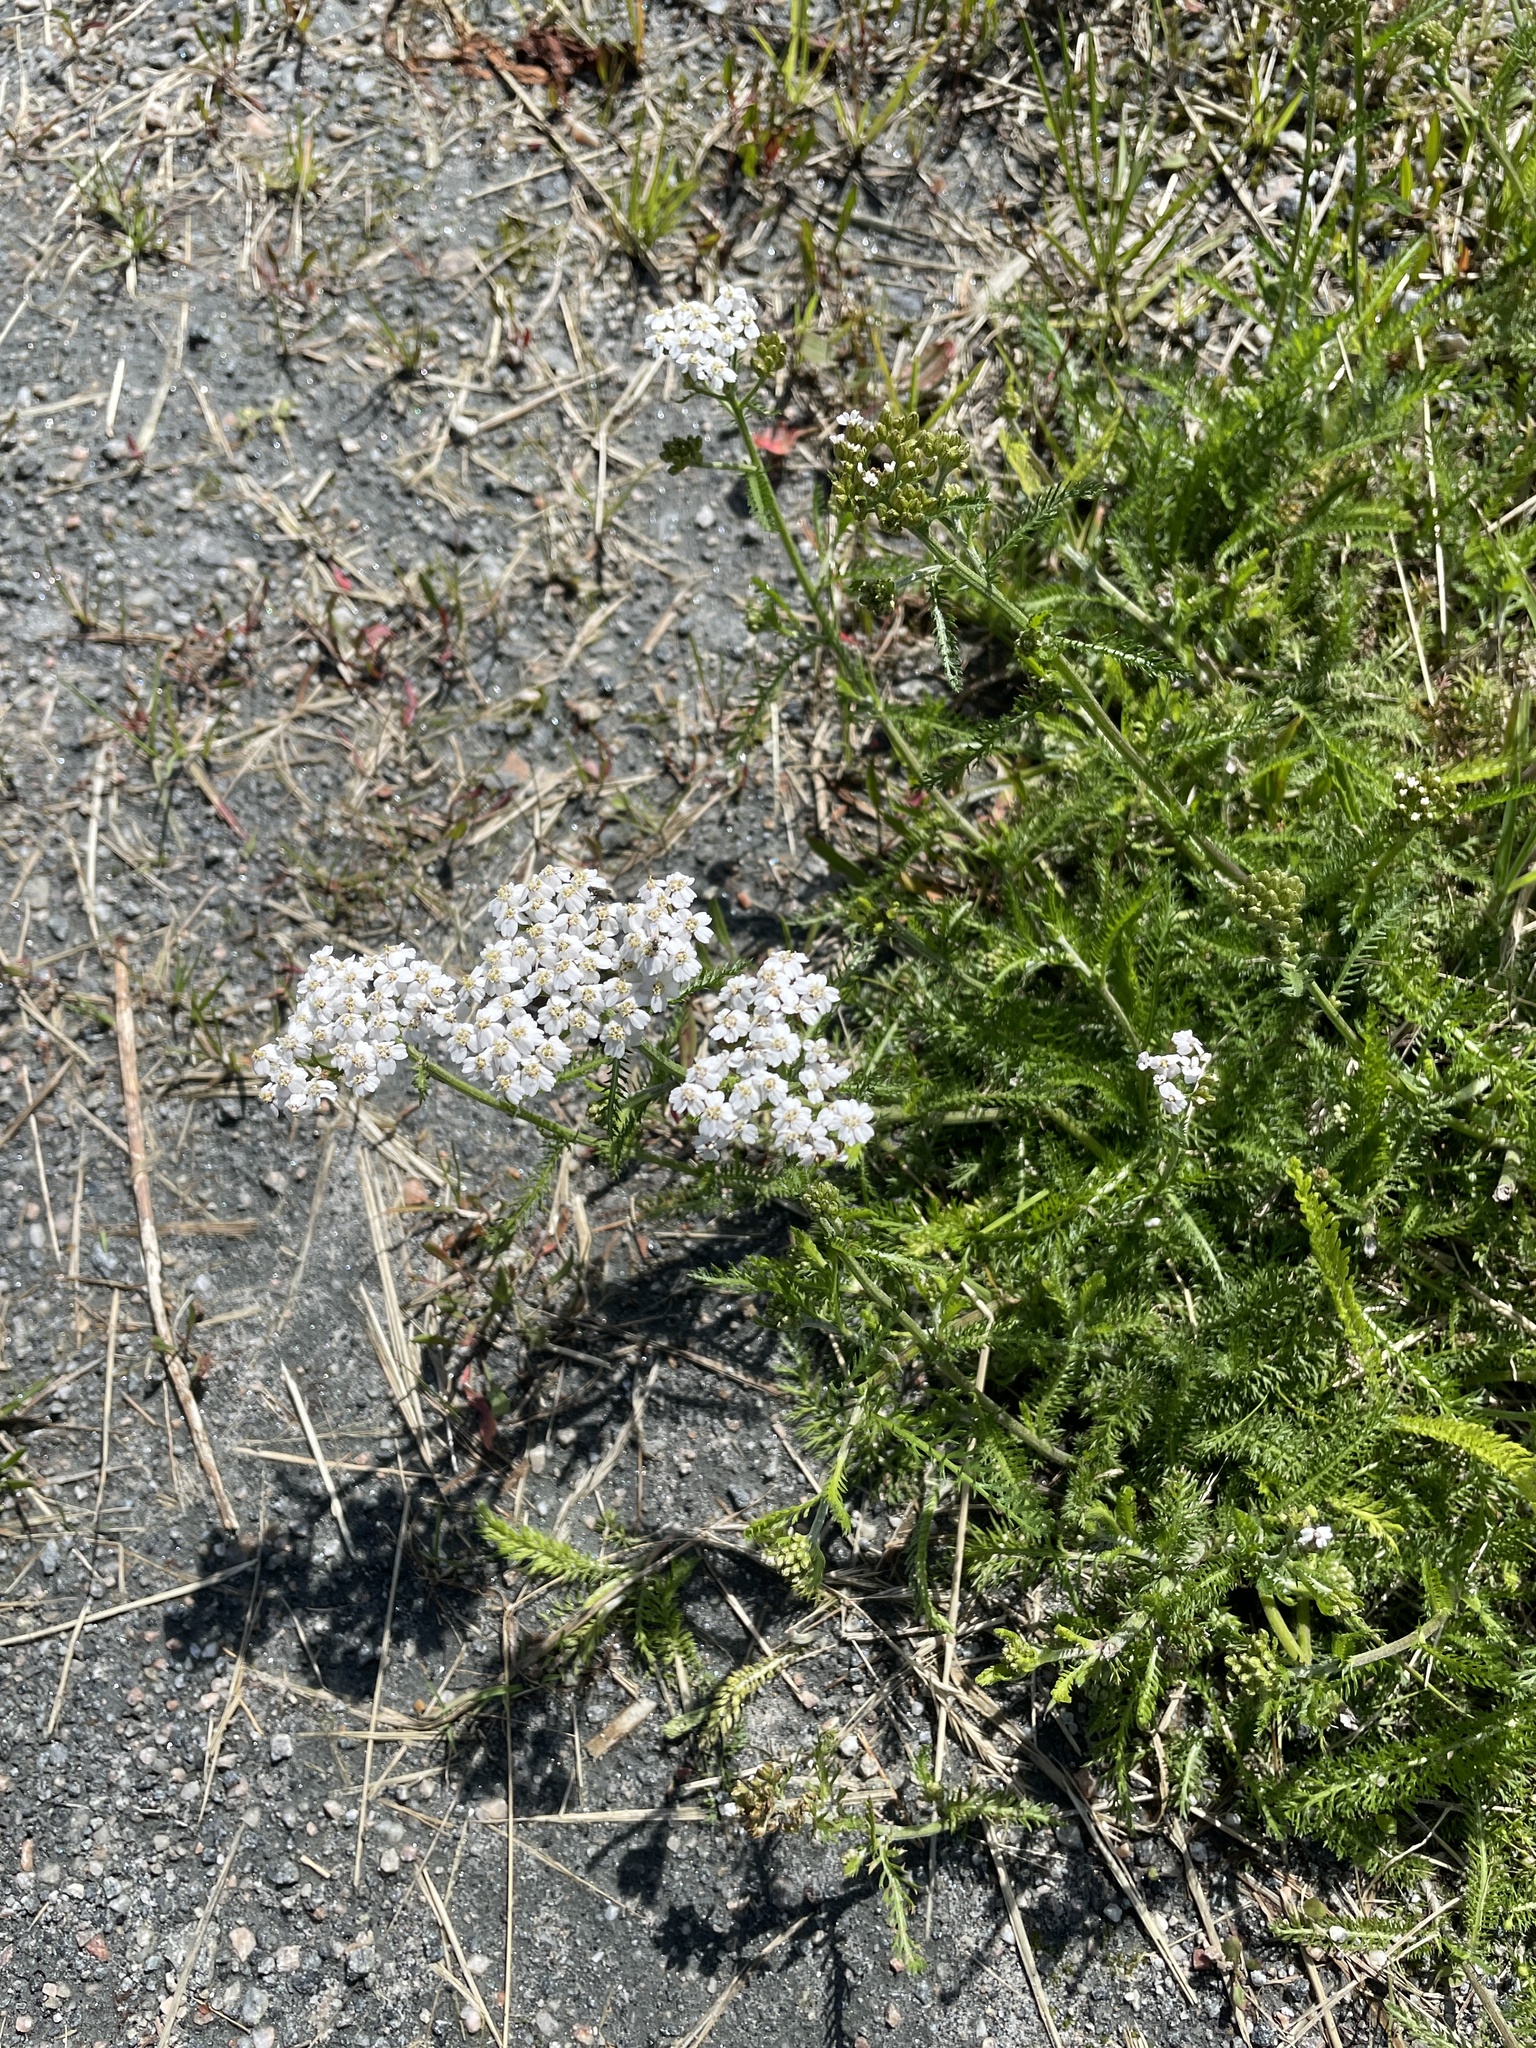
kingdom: Plantae
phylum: Tracheophyta
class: Magnoliopsida
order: Asterales
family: Asteraceae
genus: Achillea
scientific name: Achillea millefolium
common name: Yarrow
